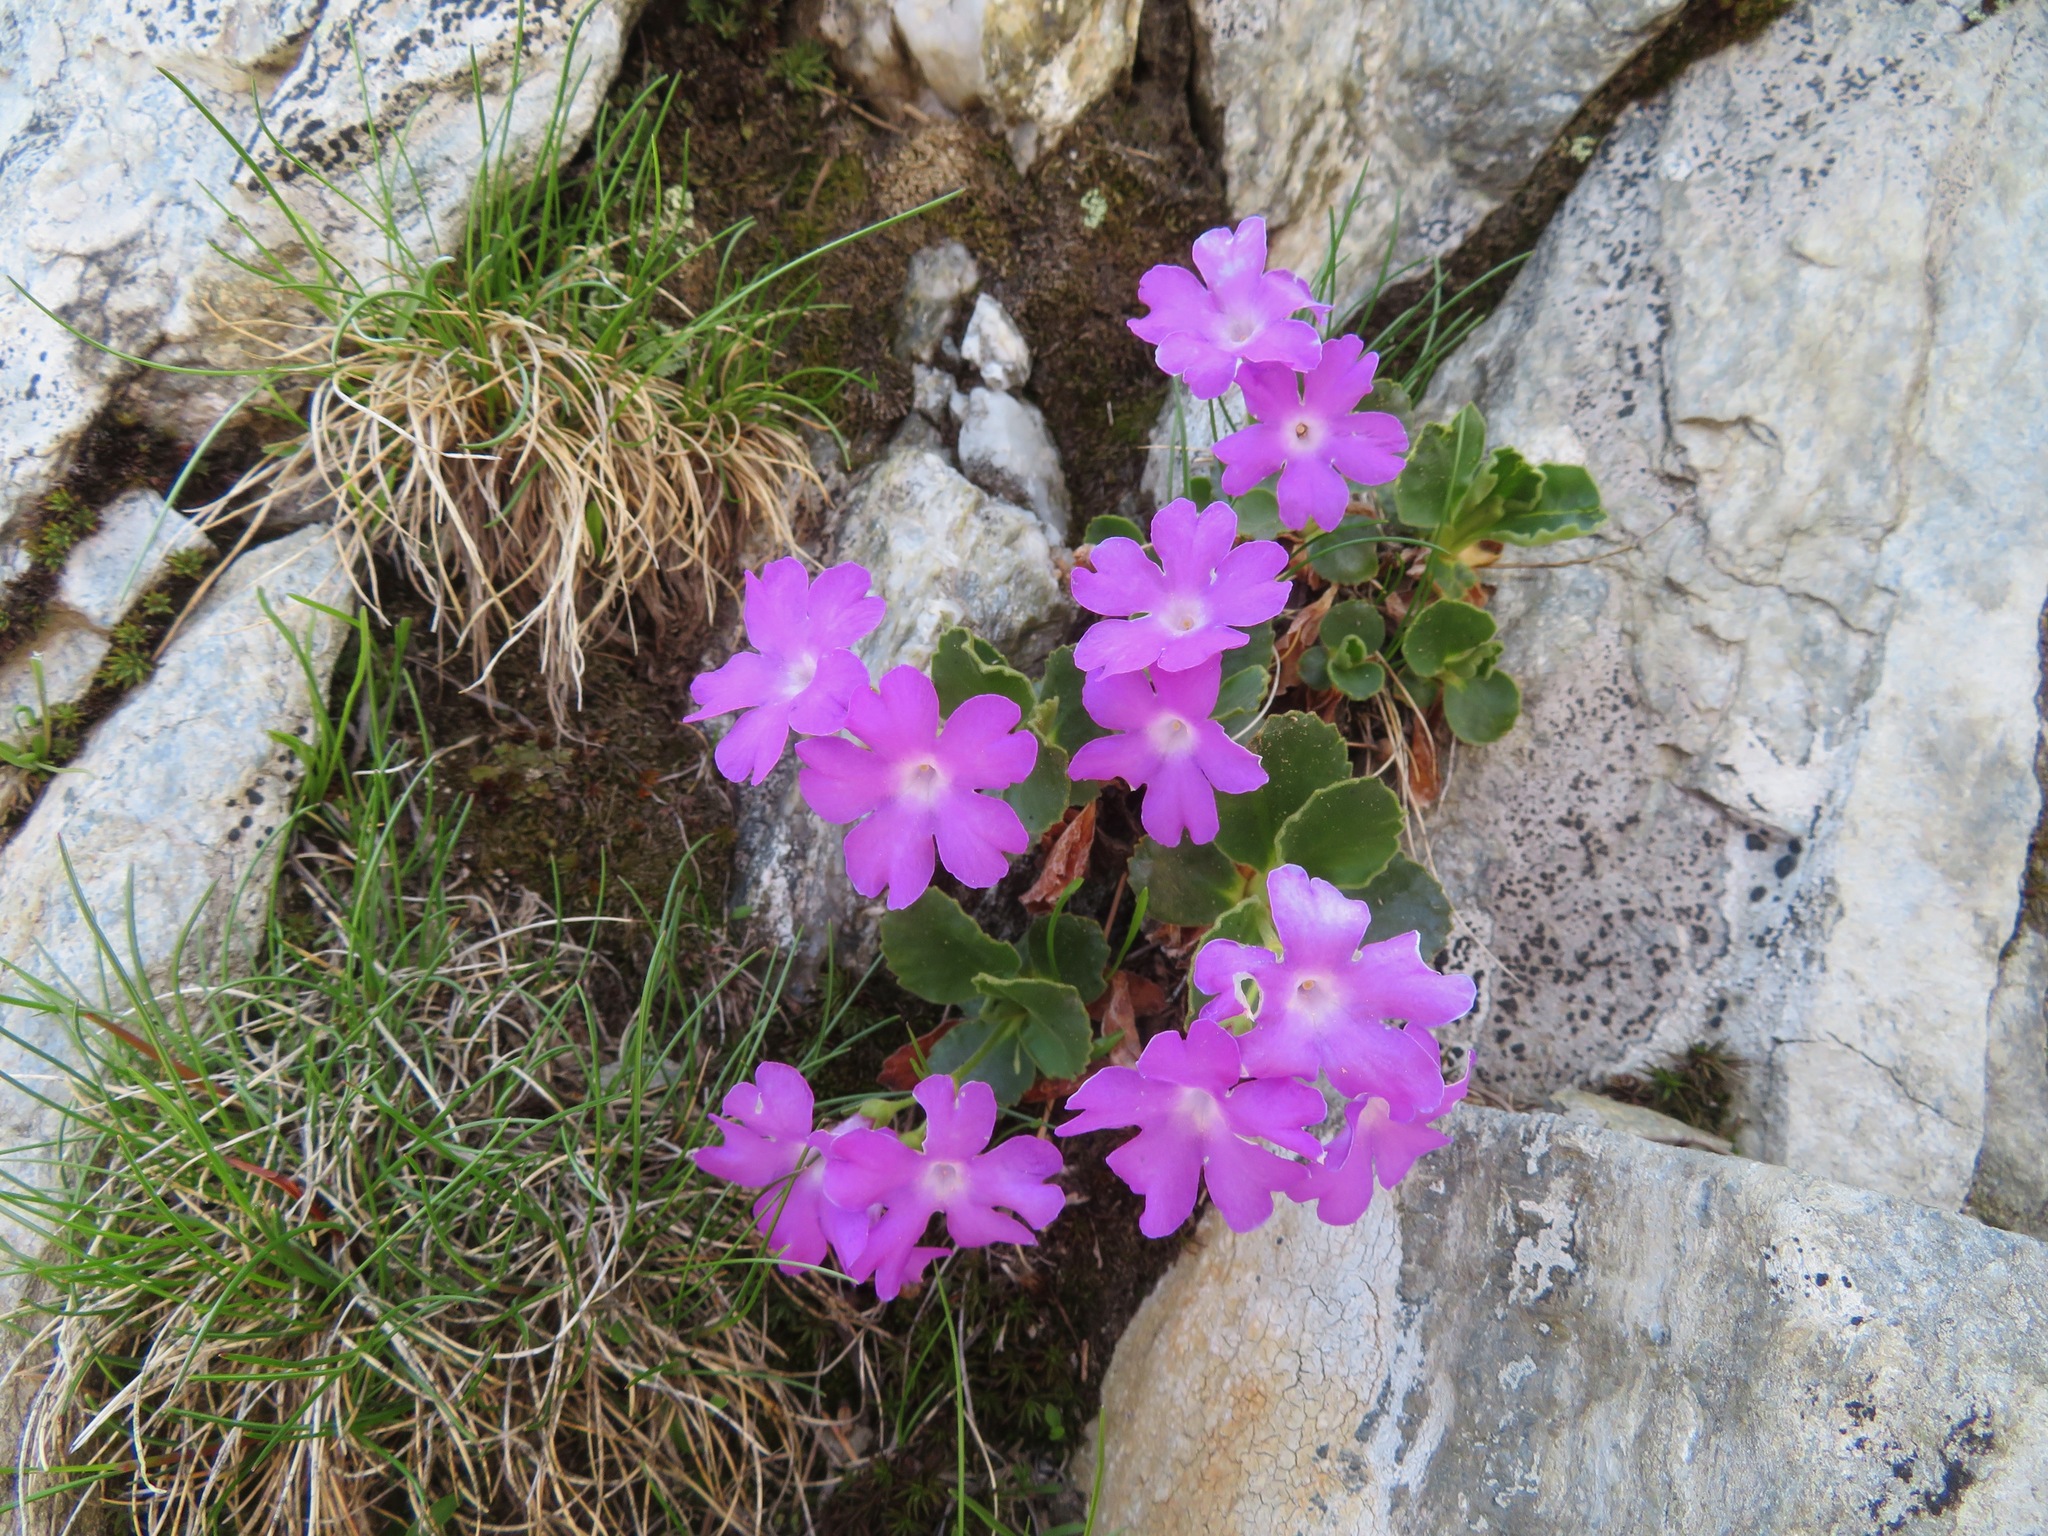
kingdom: Plantae
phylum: Tracheophyta
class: Magnoliopsida
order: Ericales
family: Primulaceae
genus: Primula
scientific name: Primula hirsuta
